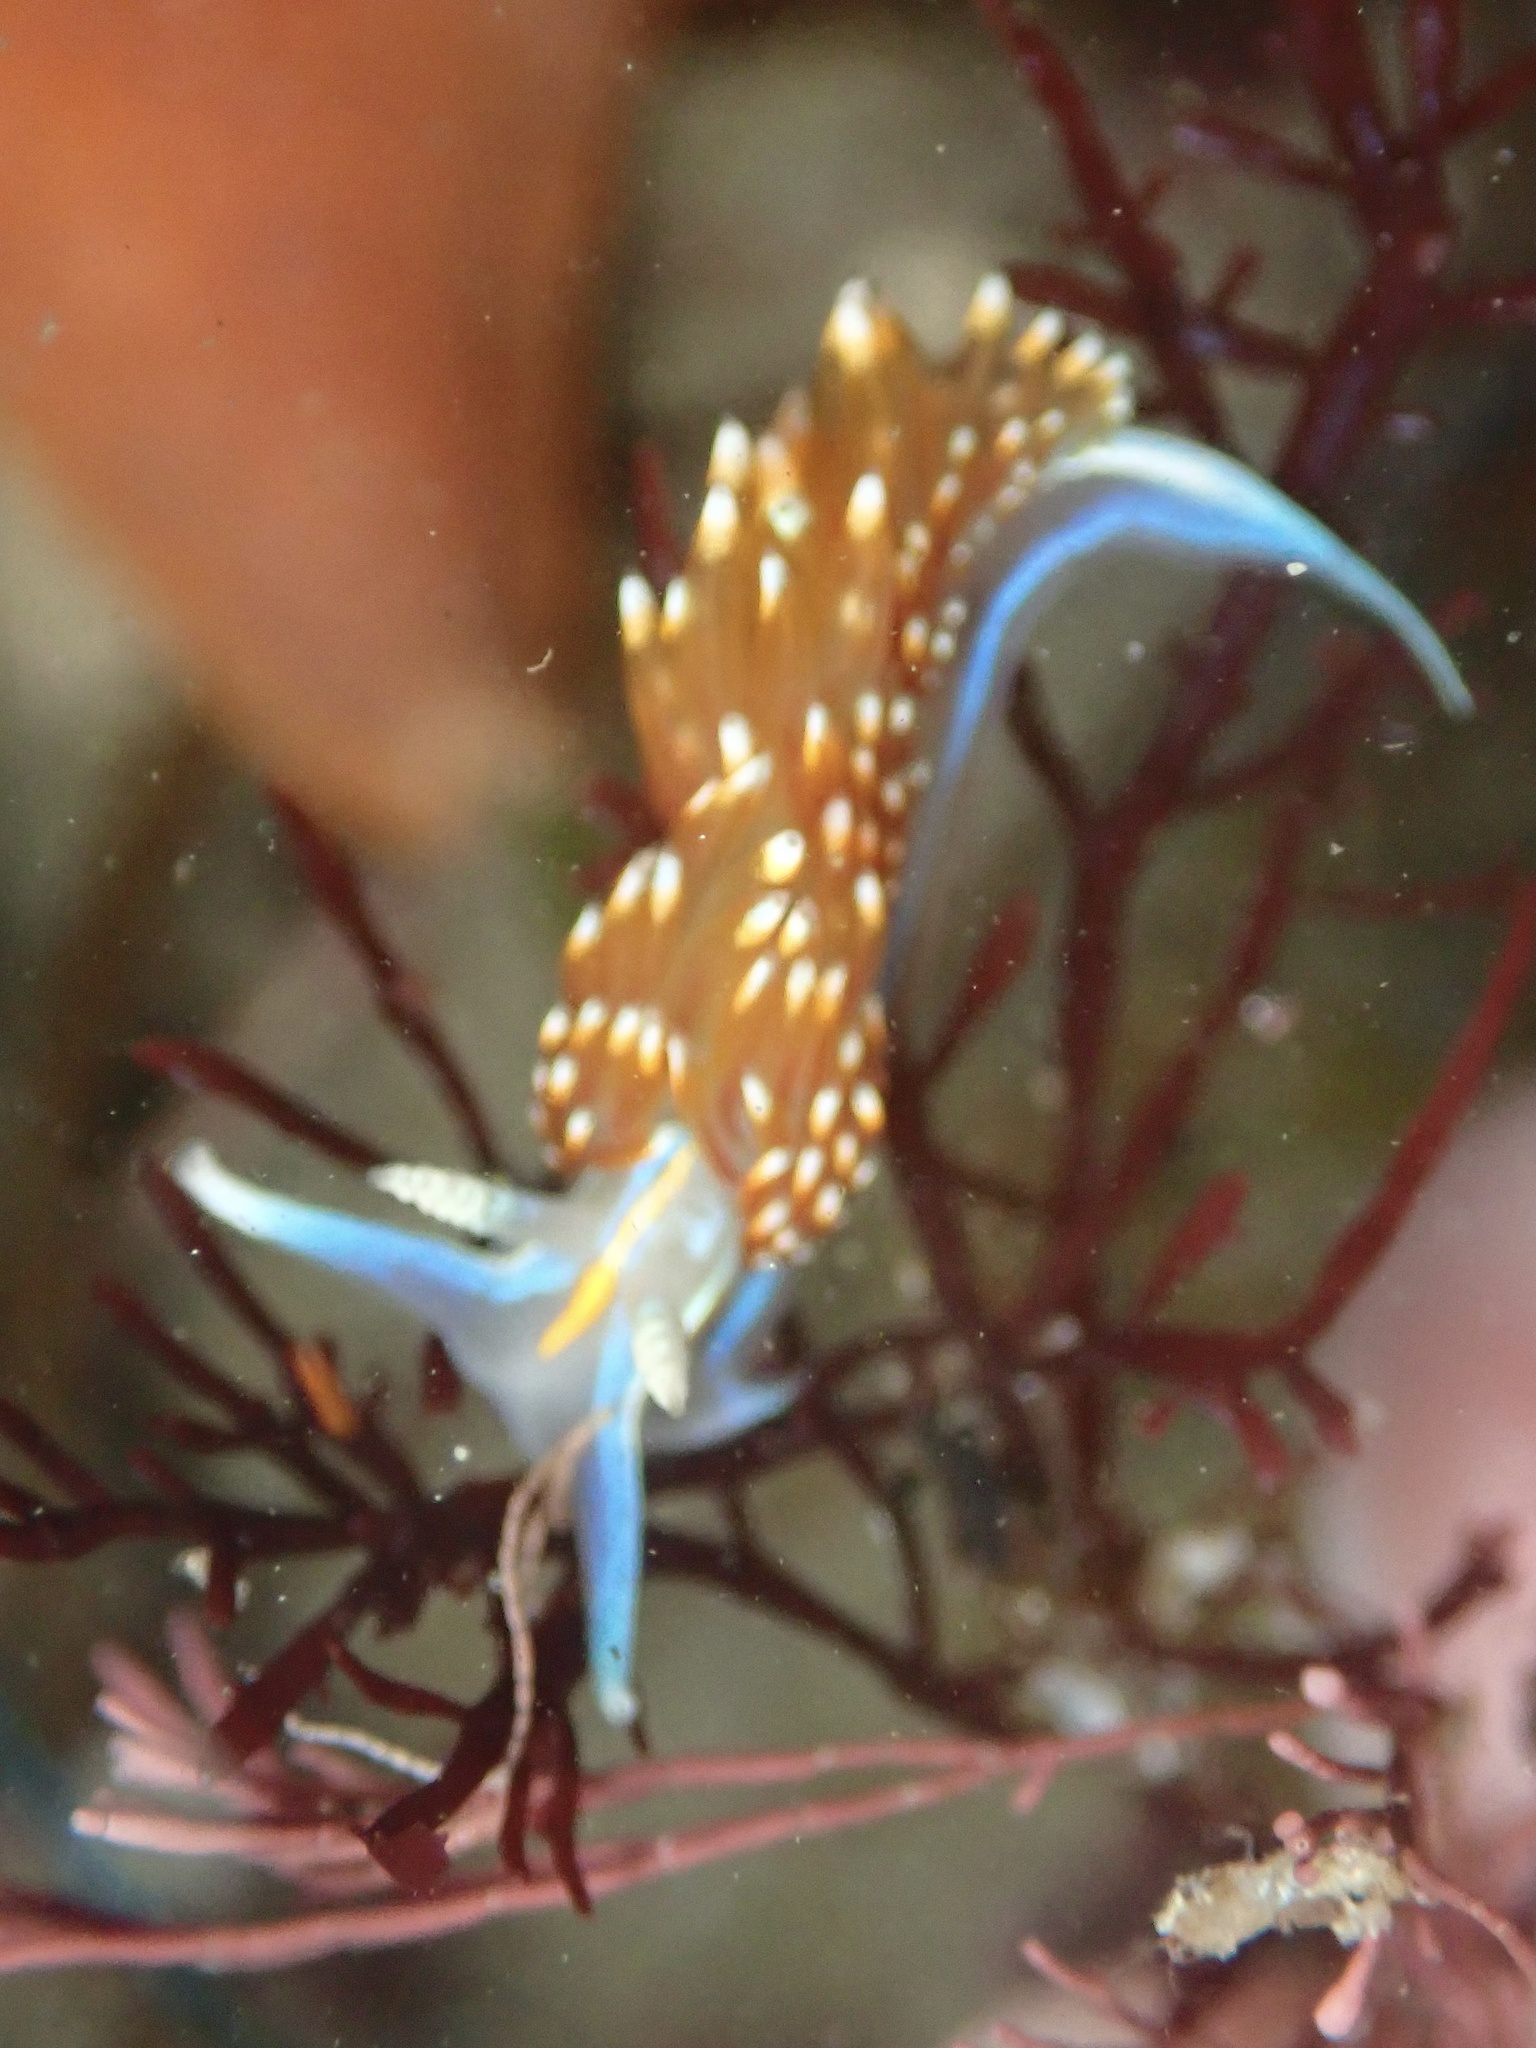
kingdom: Animalia
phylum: Mollusca
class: Gastropoda
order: Nudibranchia
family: Myrrhinidae
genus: Hermissenda
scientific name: Hermissenda opalescens
